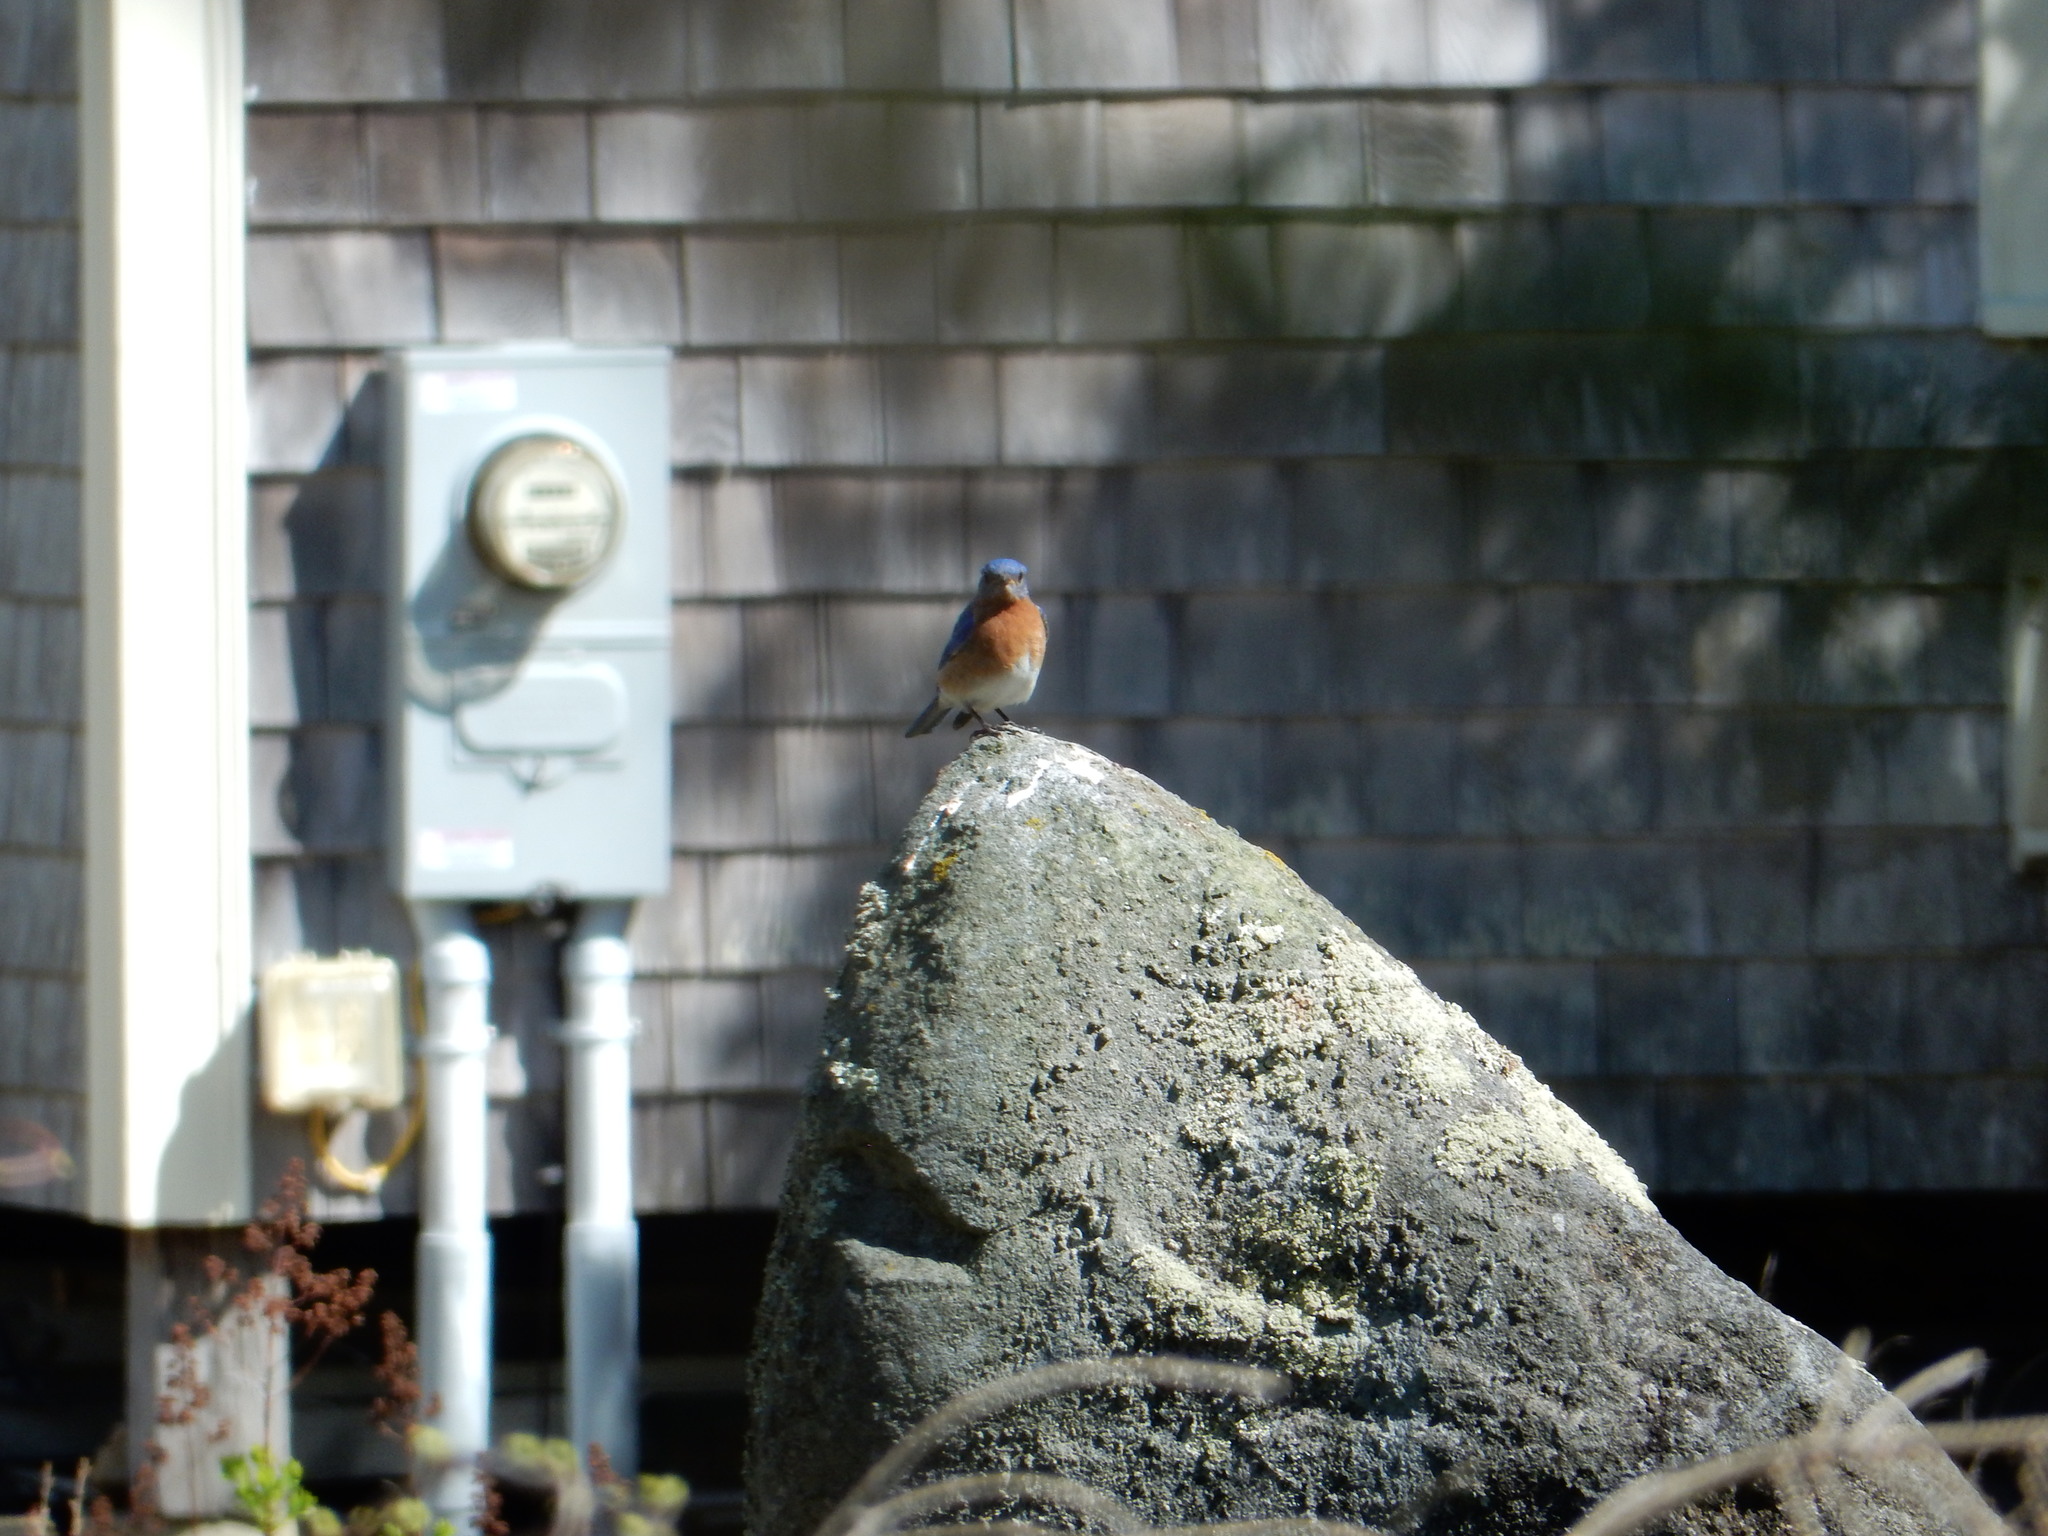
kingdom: Animalia
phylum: Chordata
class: Aves
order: Passeriformes
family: Turdidae
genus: Sialia
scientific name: Sialia sialis
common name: Eastern bluebird
